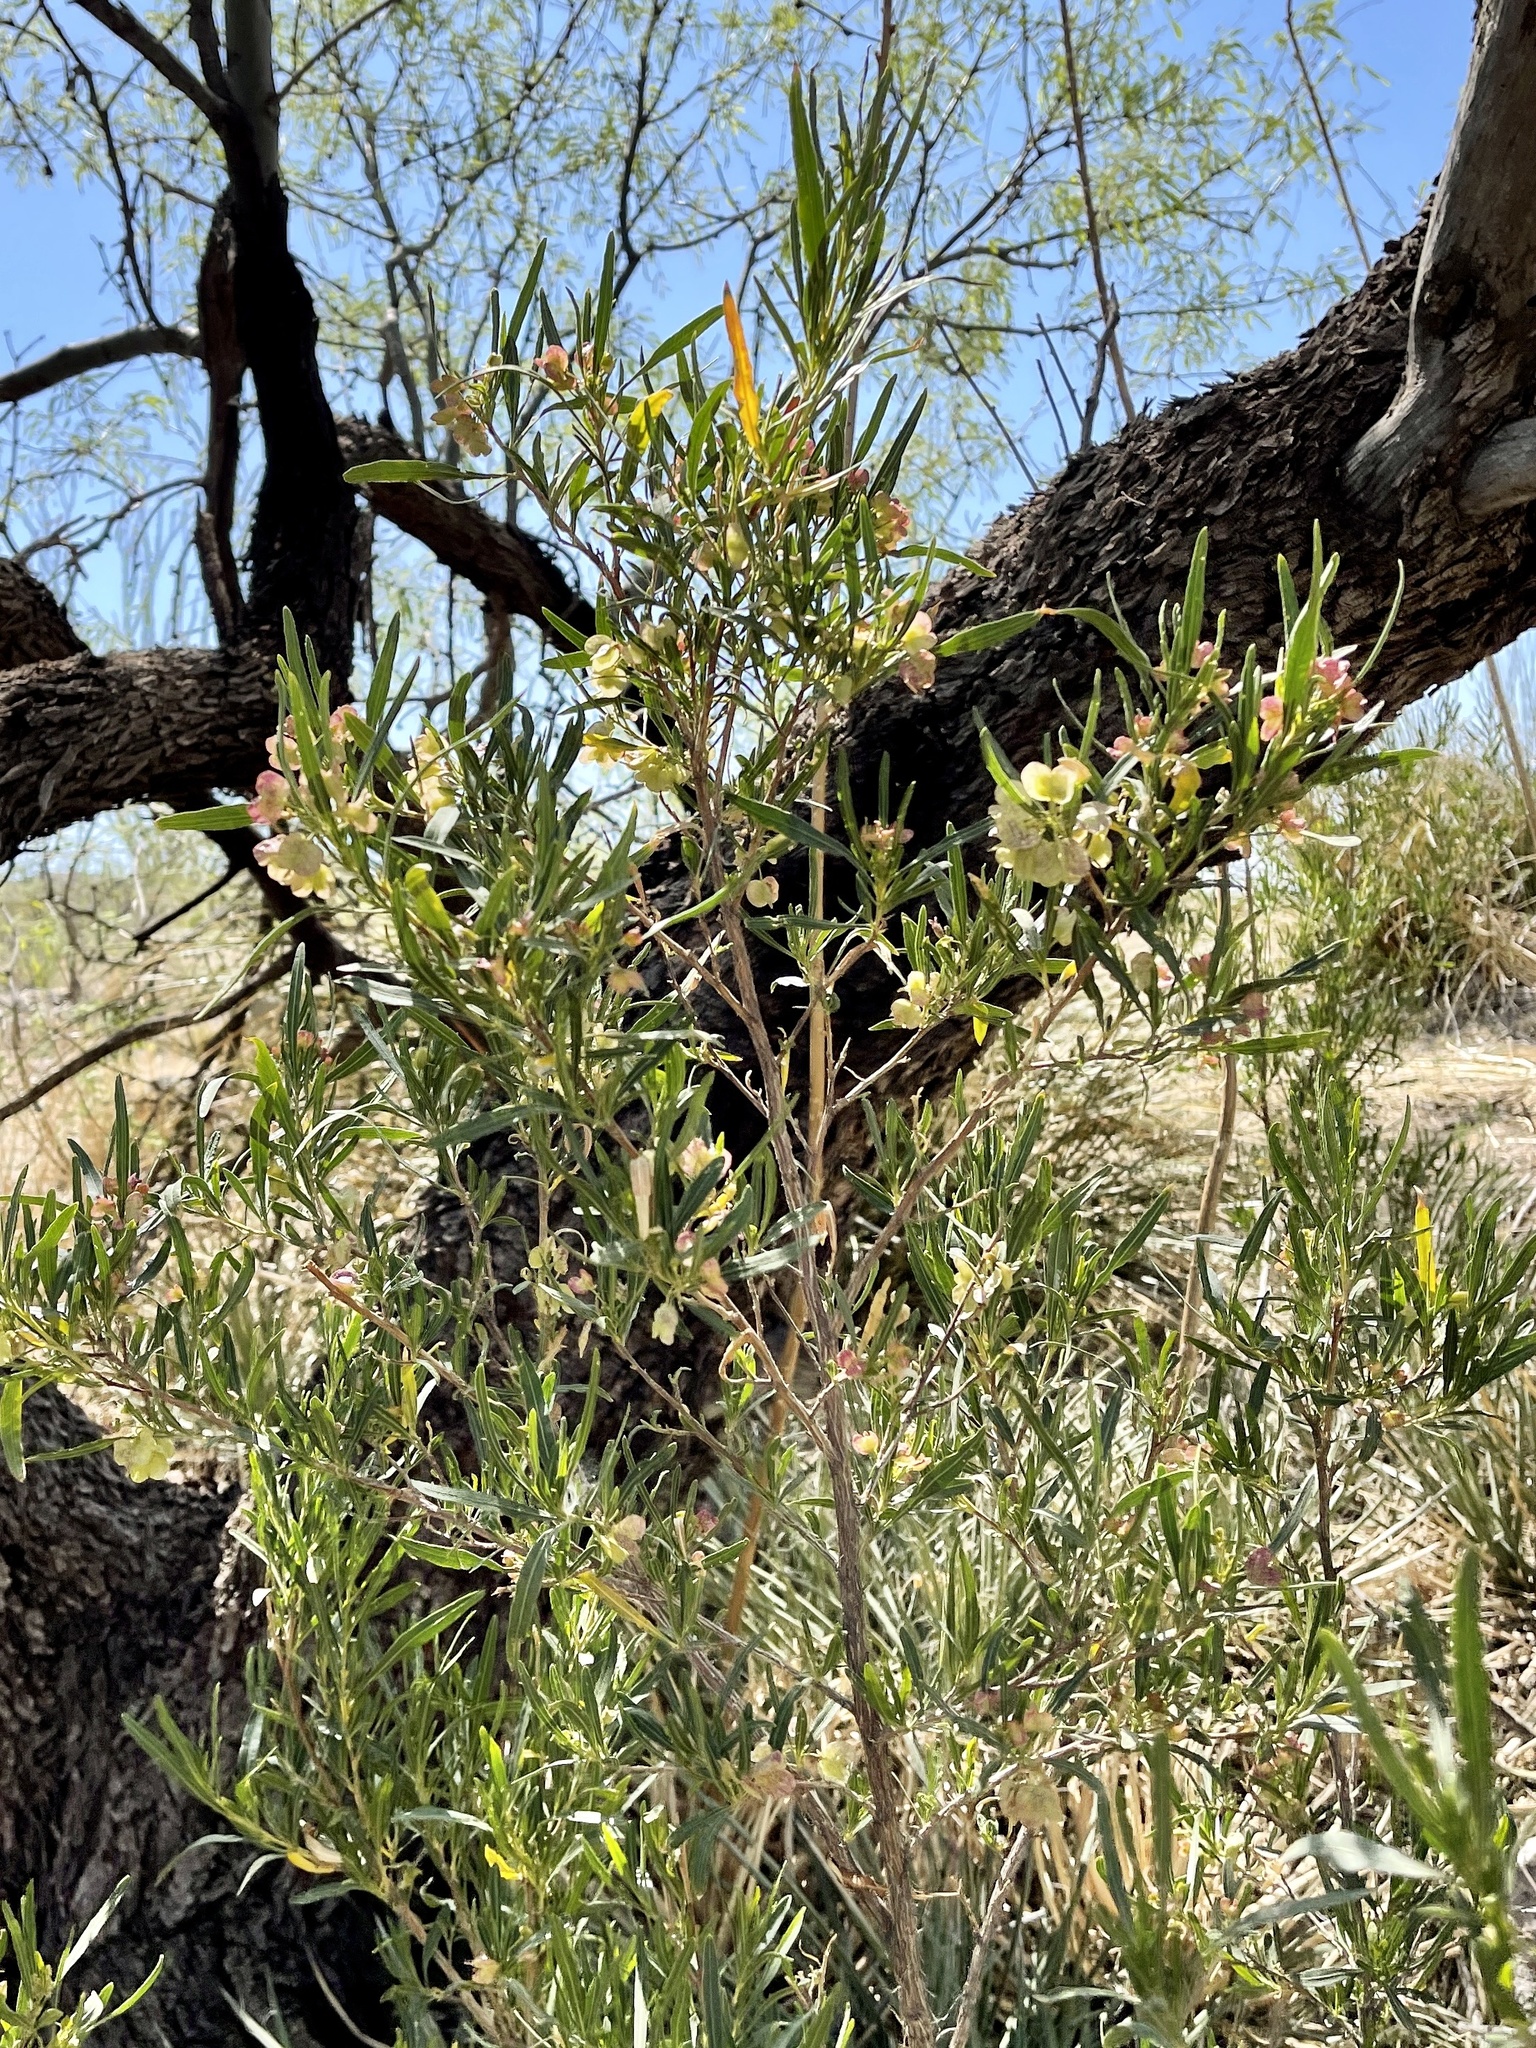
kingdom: Plantae
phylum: Tracheophyta
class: Magnoliopsida
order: Sapindales
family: Sapindaceae
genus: Dodonaea
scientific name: Dodonaea viscosa
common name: Hopbush
